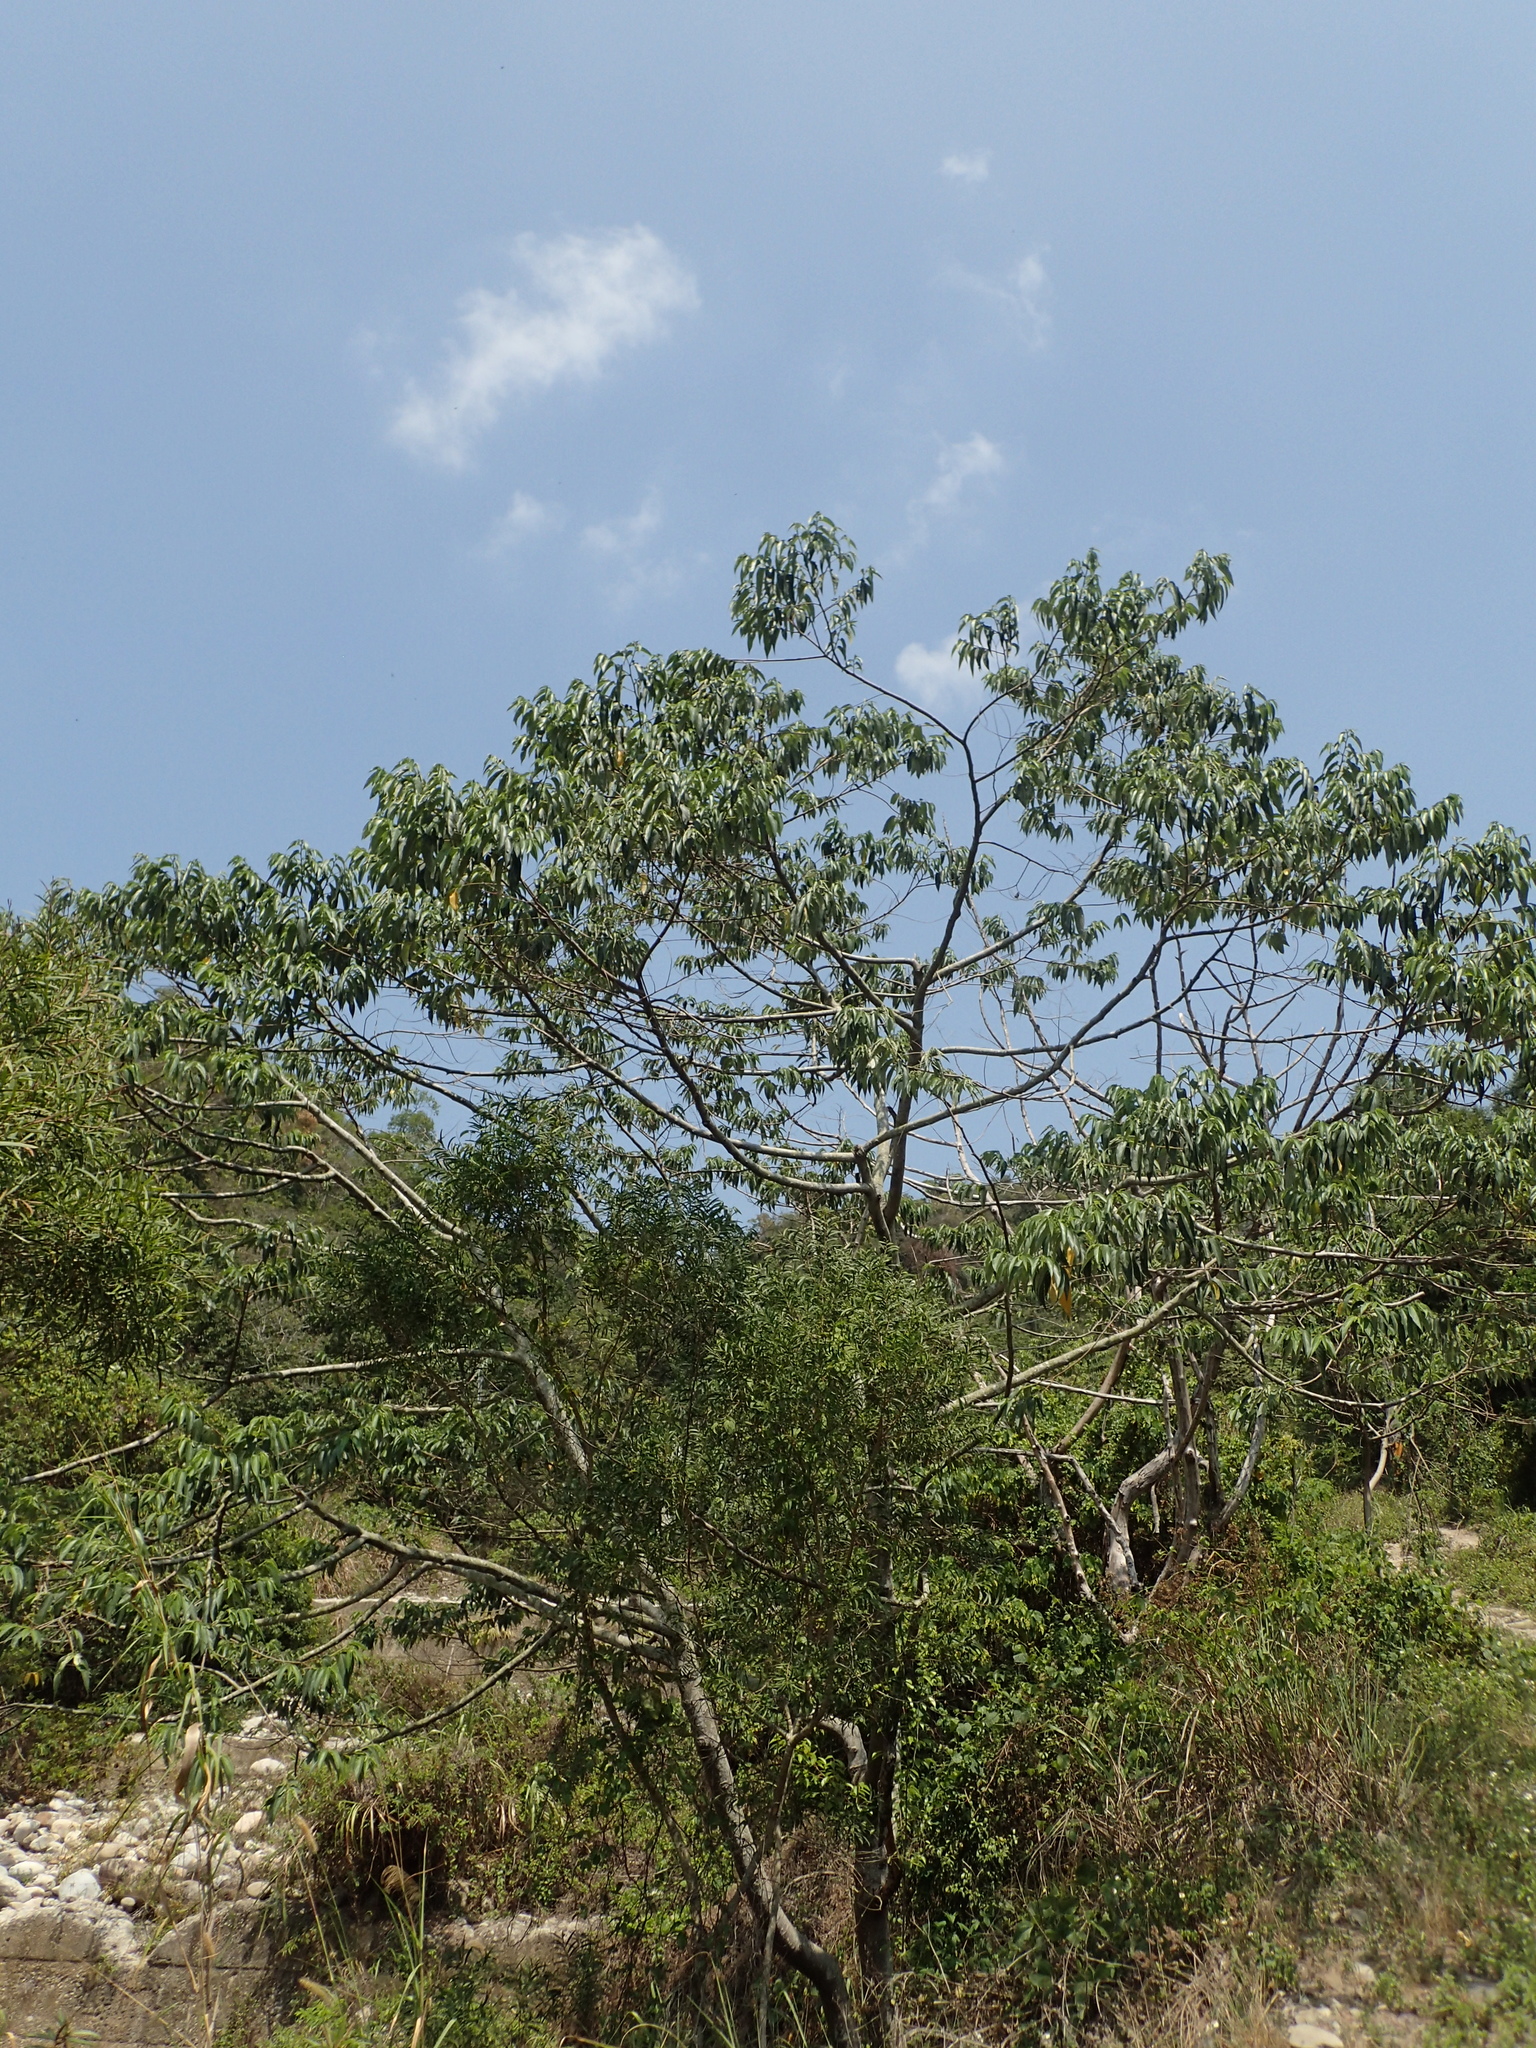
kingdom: Plantae
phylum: Tracheophyta
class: Magnoliopsida
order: Rosales
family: Cannabaceae
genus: Trema
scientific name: Trema orientale
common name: Indian charcoal tree
